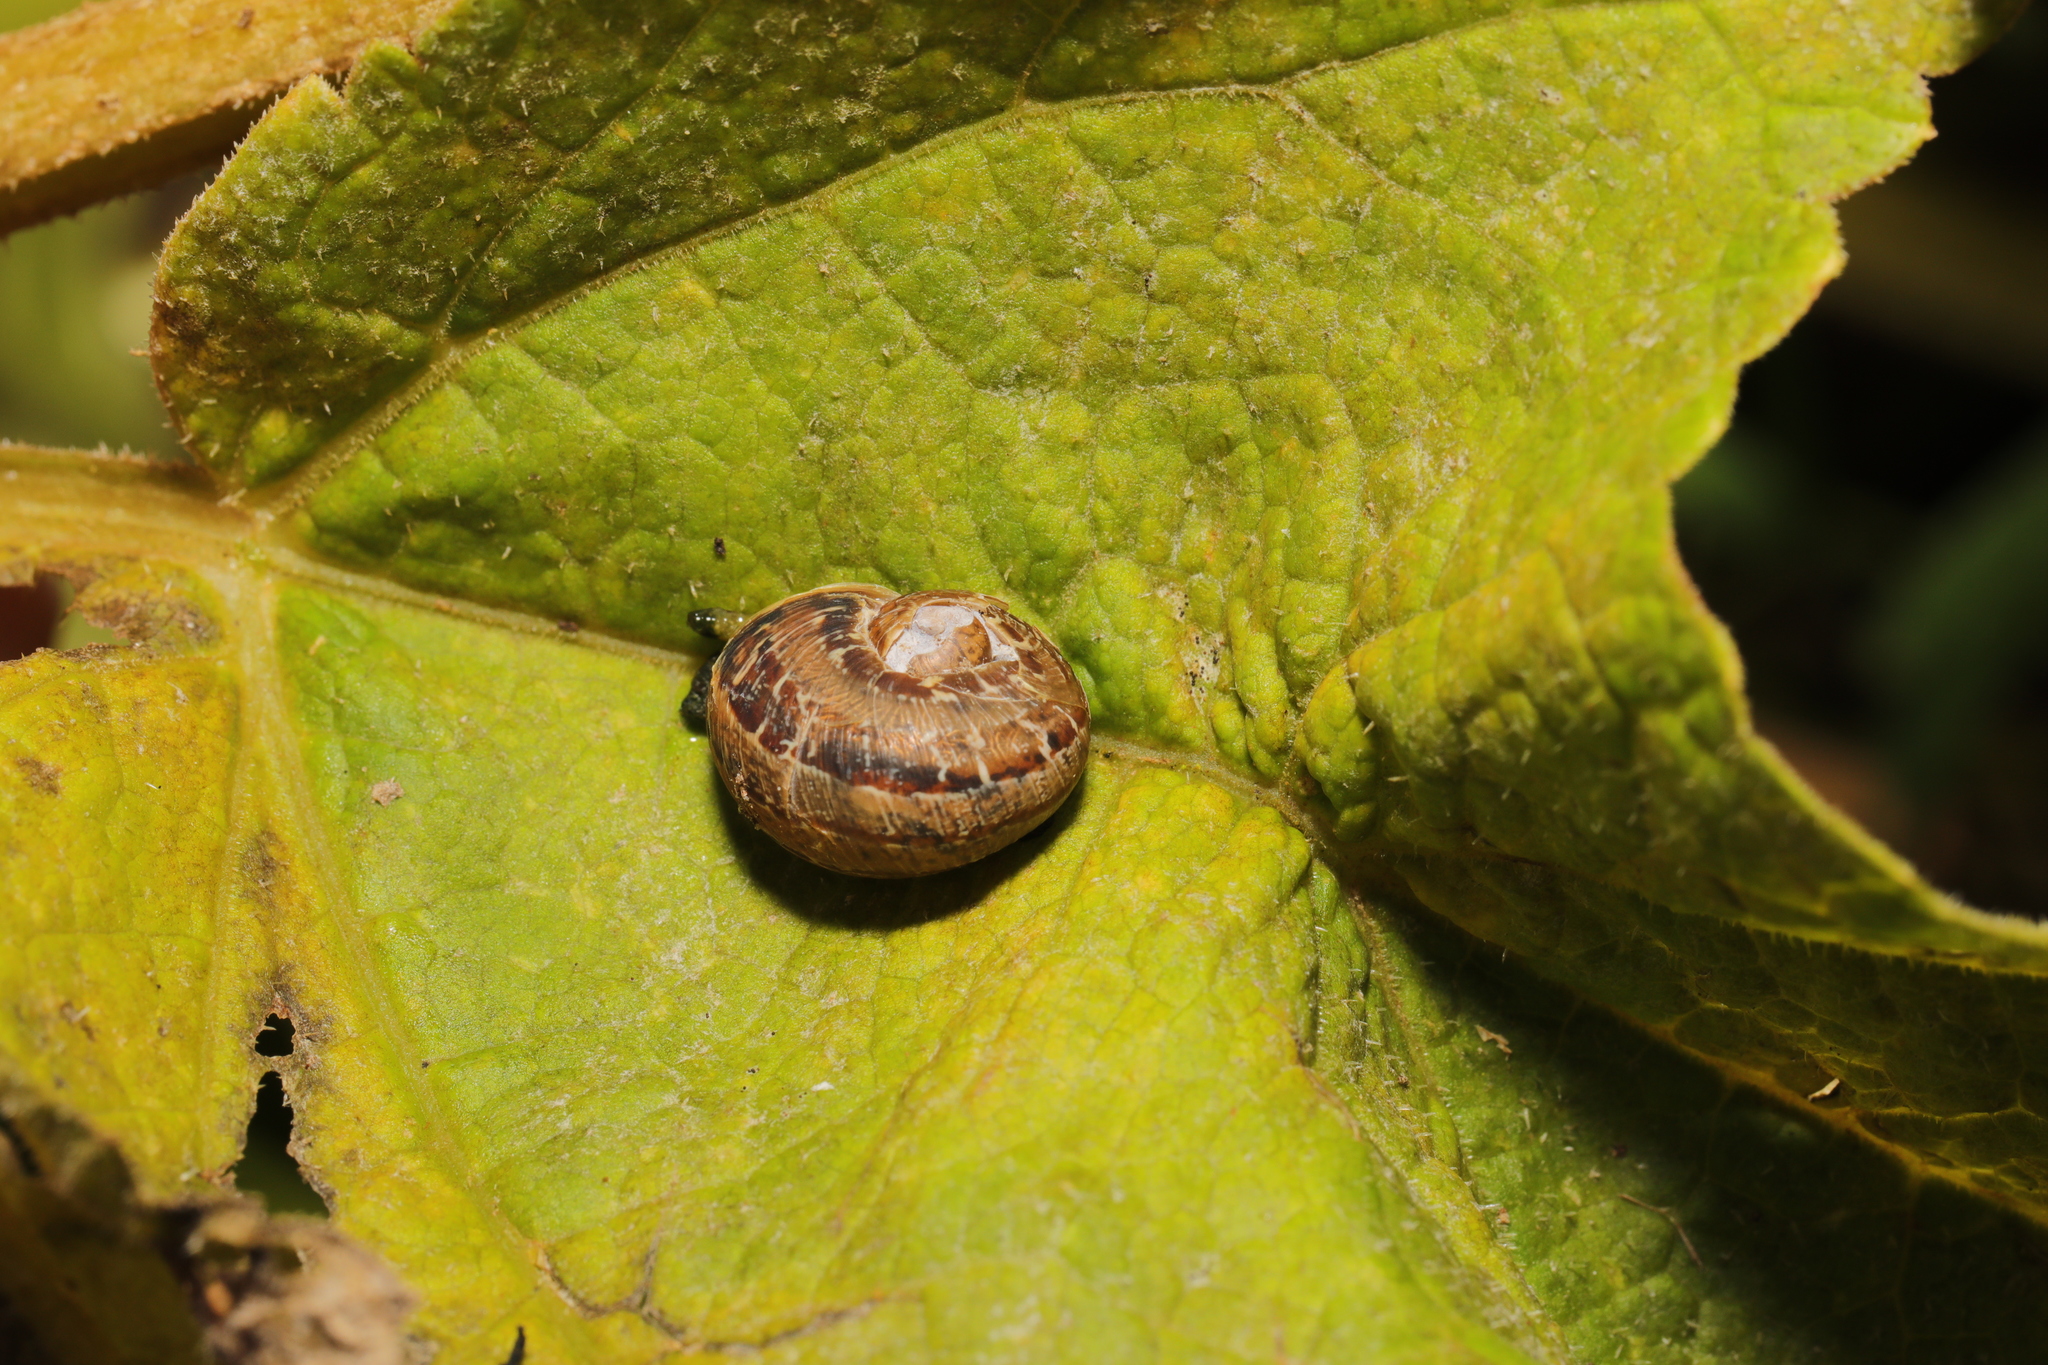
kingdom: Animalia
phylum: Mollusca
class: Gastropoda
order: Stylommatophora
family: Helicidae
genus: Cornu
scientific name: Cornu aspersum
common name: Brown garden snail
